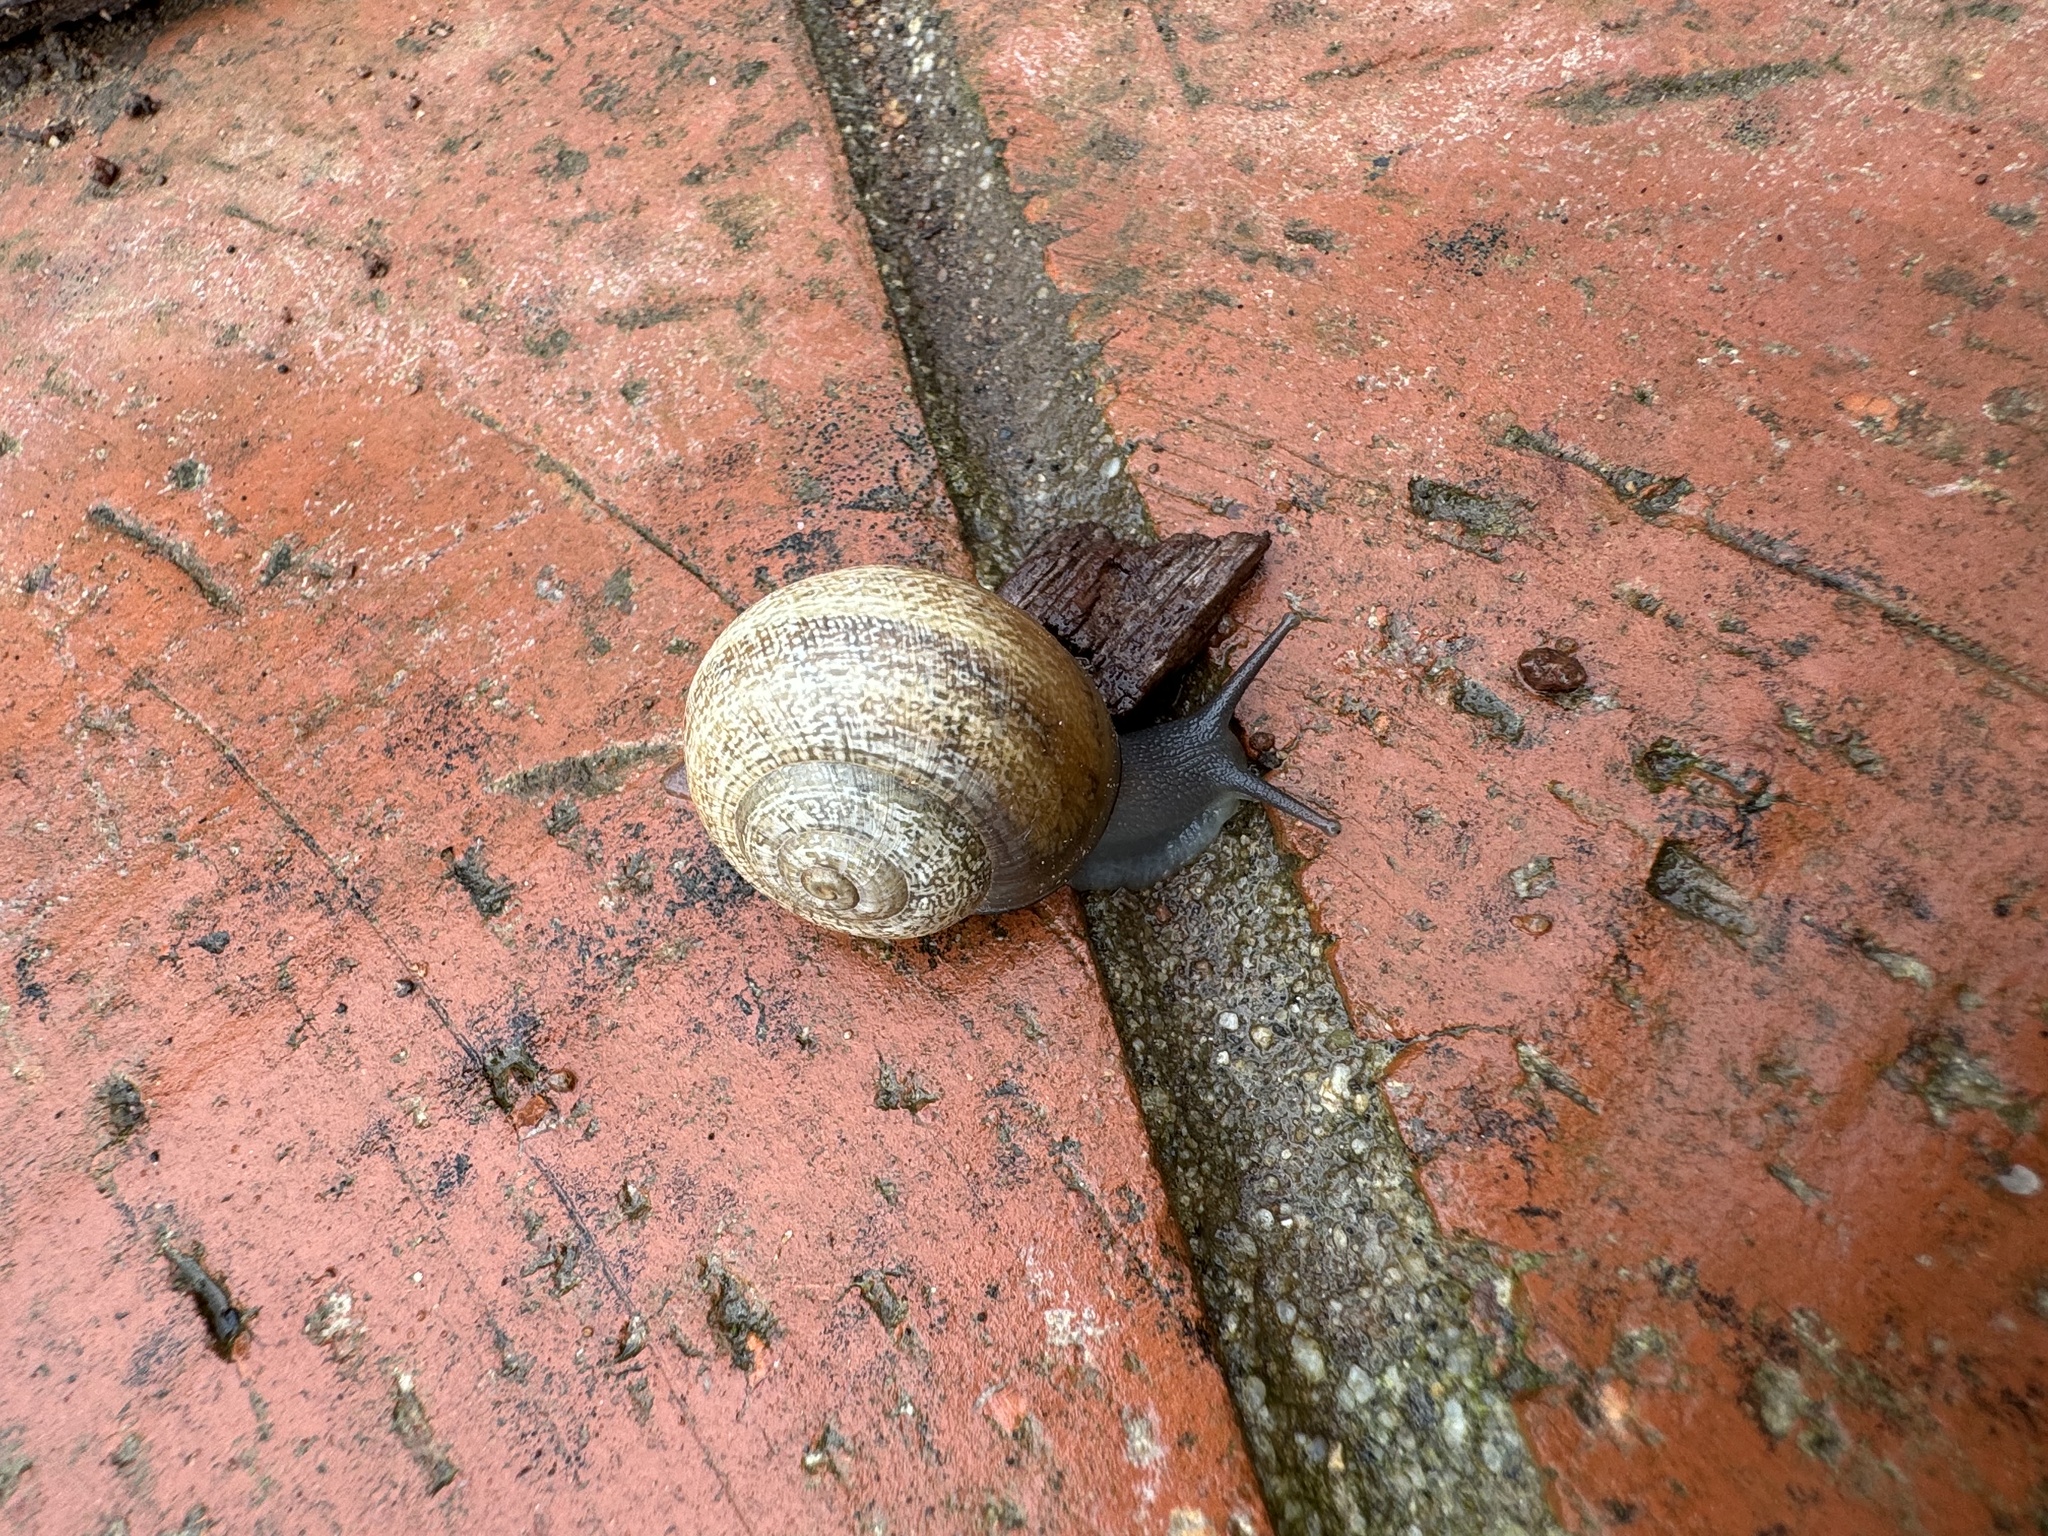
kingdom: Animalia
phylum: Mollusca
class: Gastropoda
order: Stylommatophora
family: Helicidae
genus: Otala
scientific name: Otala lactea
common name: Milk snail
